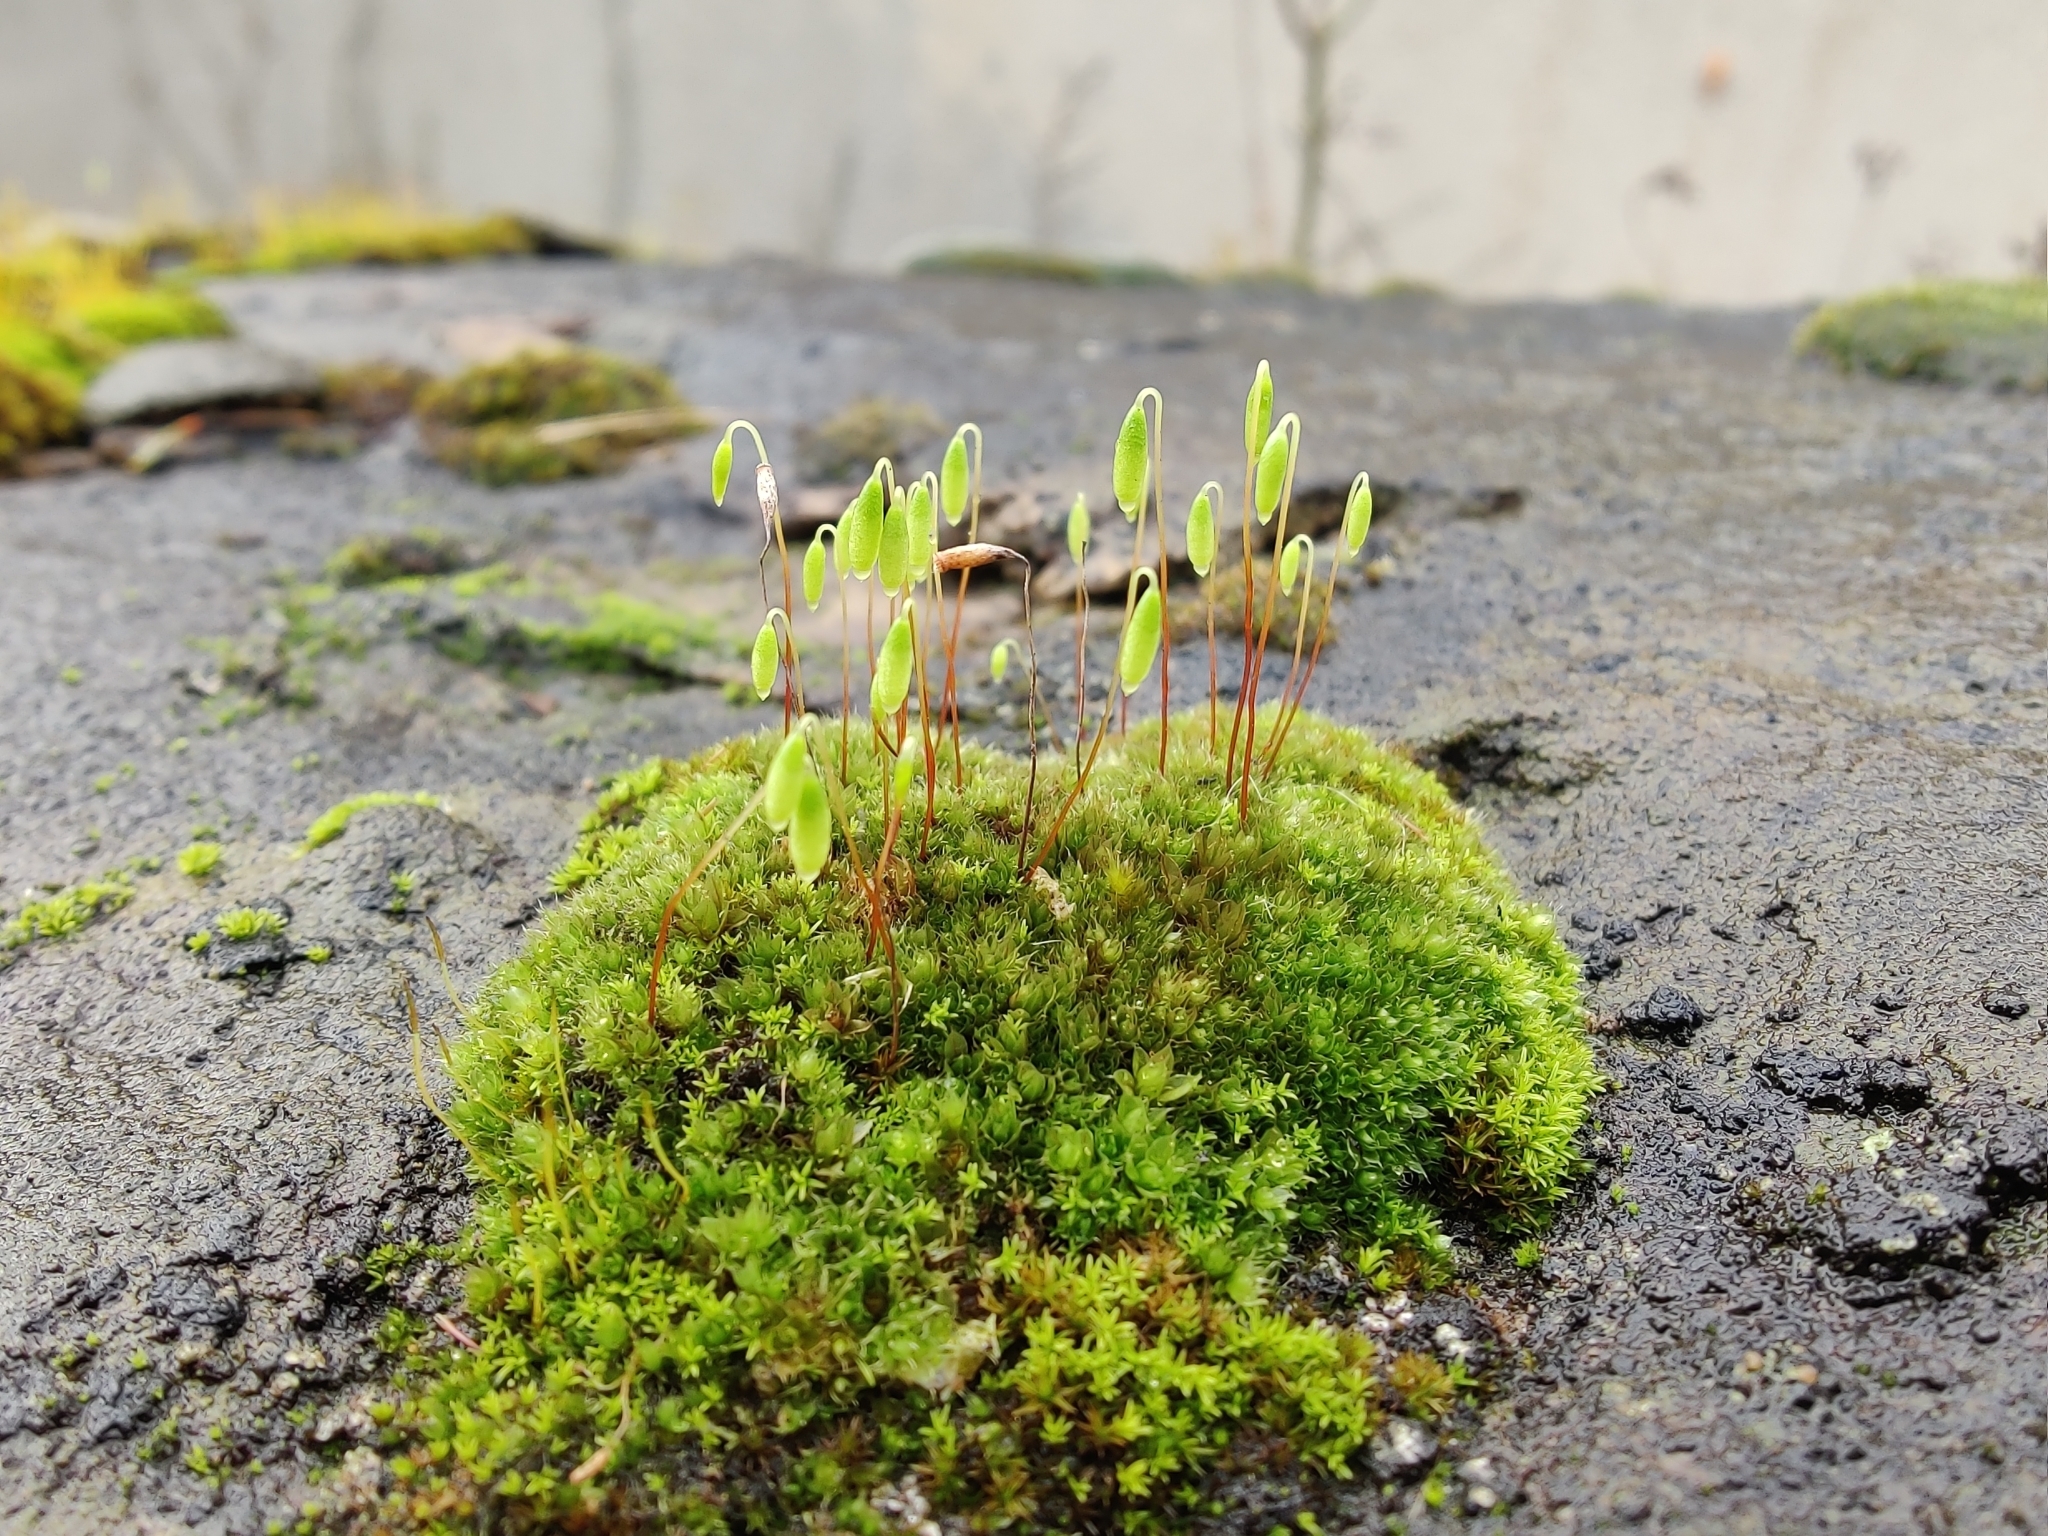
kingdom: Plantae
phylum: Bryophyta
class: Bryopsida
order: Bryales
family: Bryaceae
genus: Rosulabryum
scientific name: Rosulabryum capillare
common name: Capillary thread-moss
